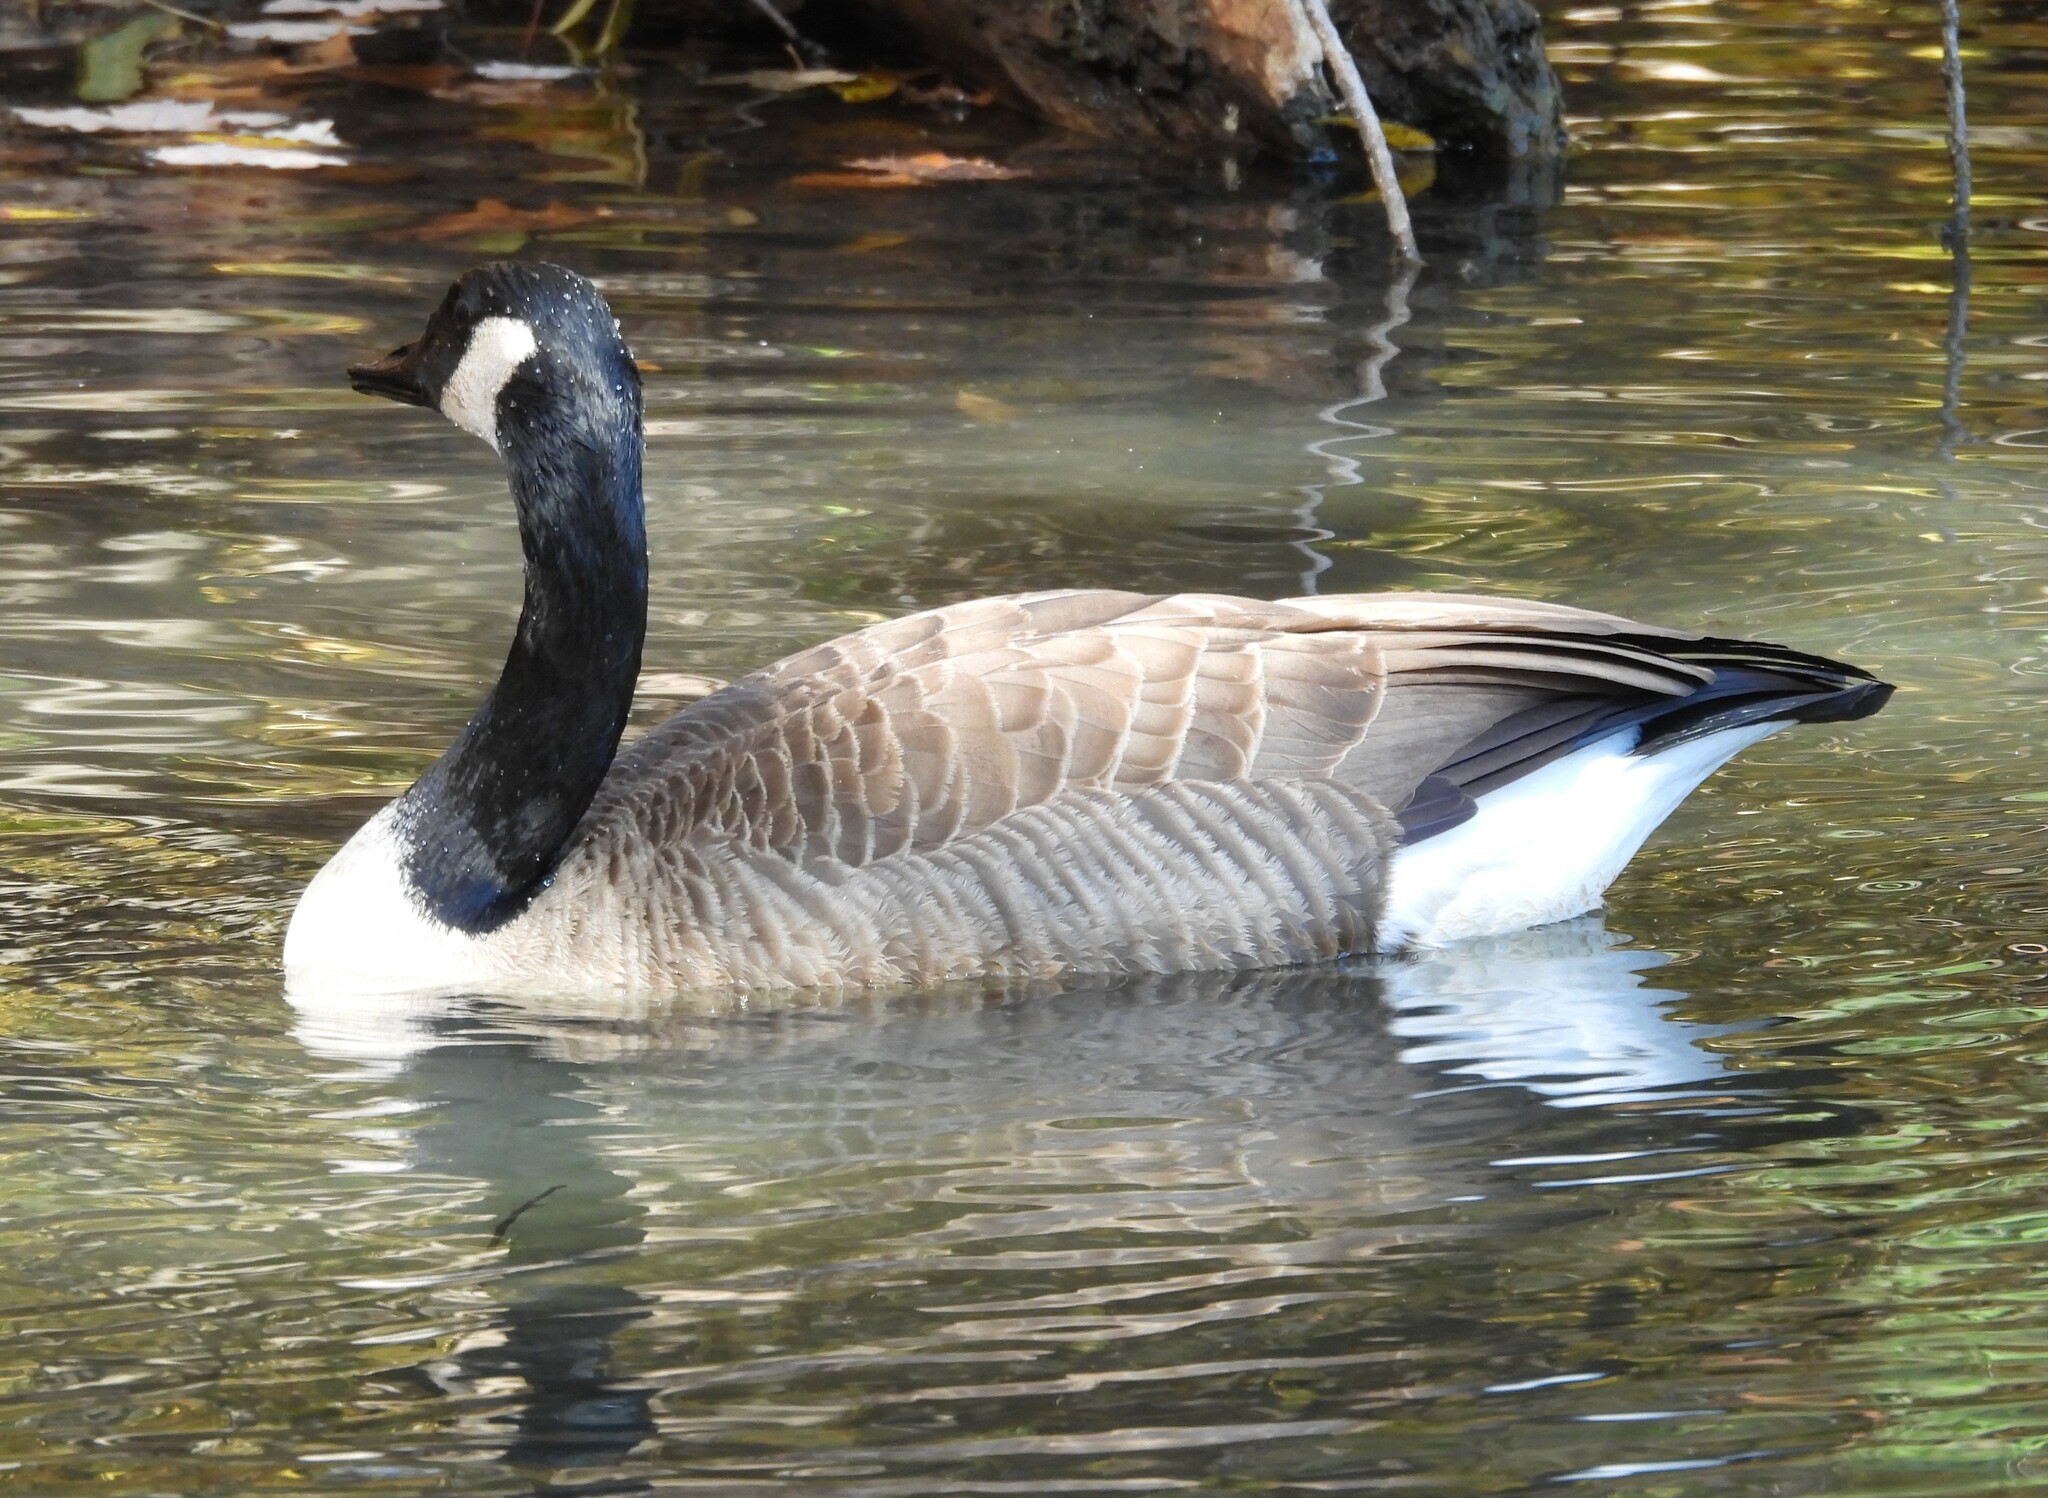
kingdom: Animalia
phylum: Chordata
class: Aves
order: Anseriformes
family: Anatidae
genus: Branta
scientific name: Branta canadensis
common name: Canada goose
